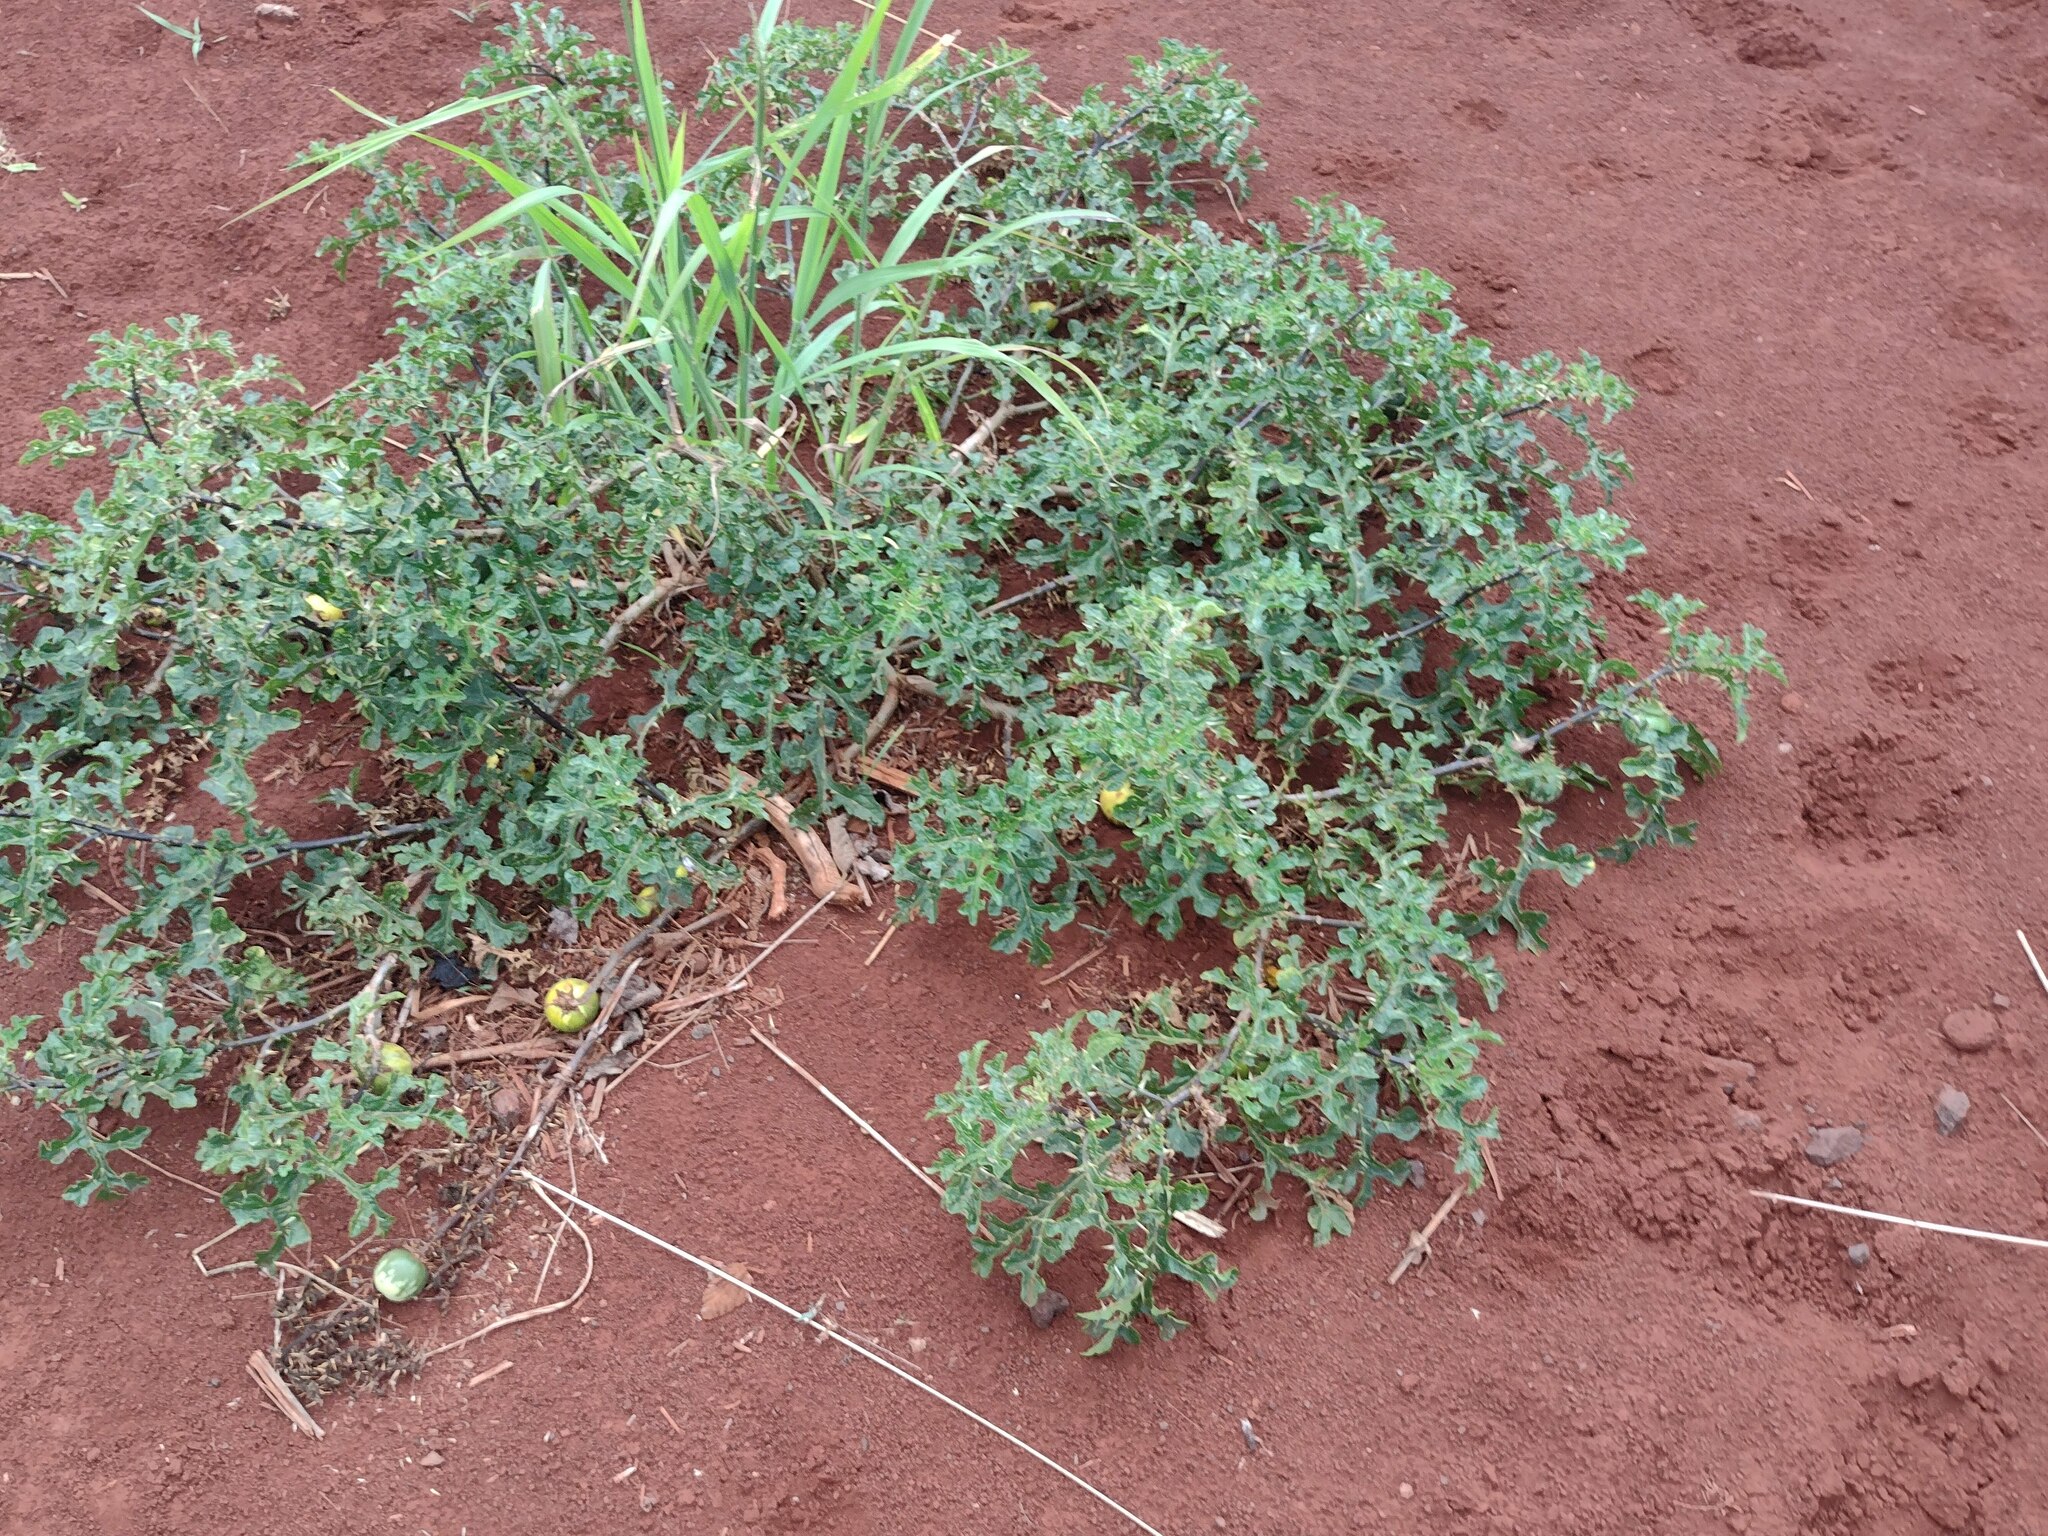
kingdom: Plantae
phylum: Tracheophyta
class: Magnoliopsida
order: Solanales
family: Solanaceae
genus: Solanum
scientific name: Solanum linnaeanum
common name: Nightshade
